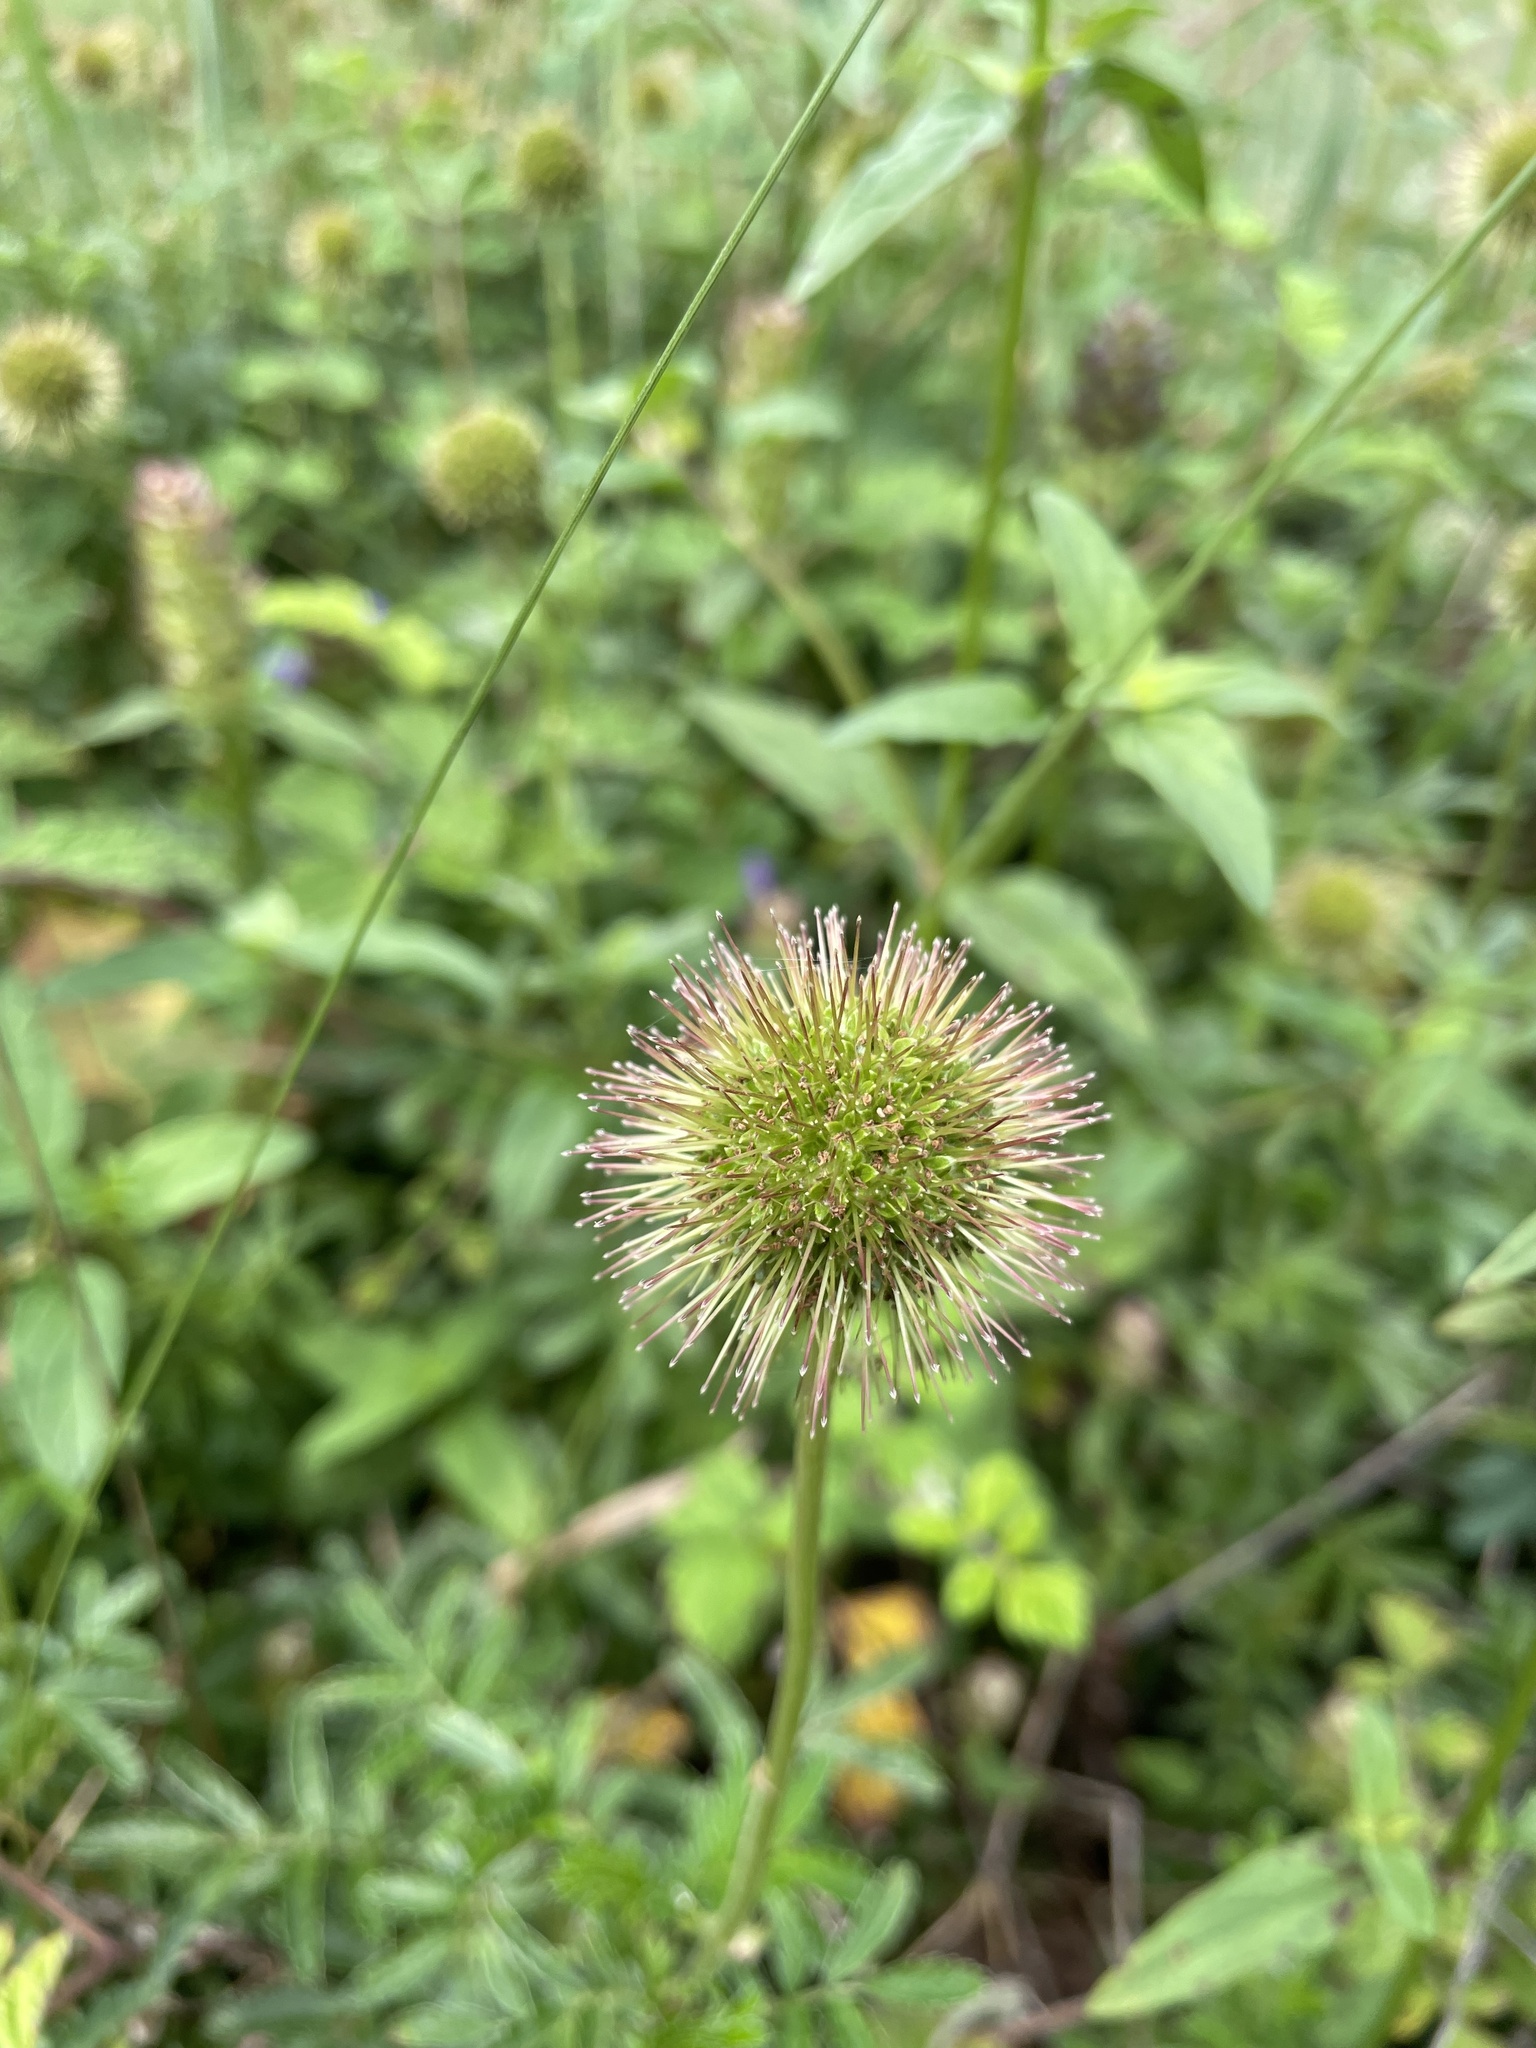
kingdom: Plantae
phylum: Tracheophyta
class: Magnoliopsida
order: Rosales
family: Rosaceae
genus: Acaena
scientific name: Acaena novae-zelandiae
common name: Pirri-pirri-bur
